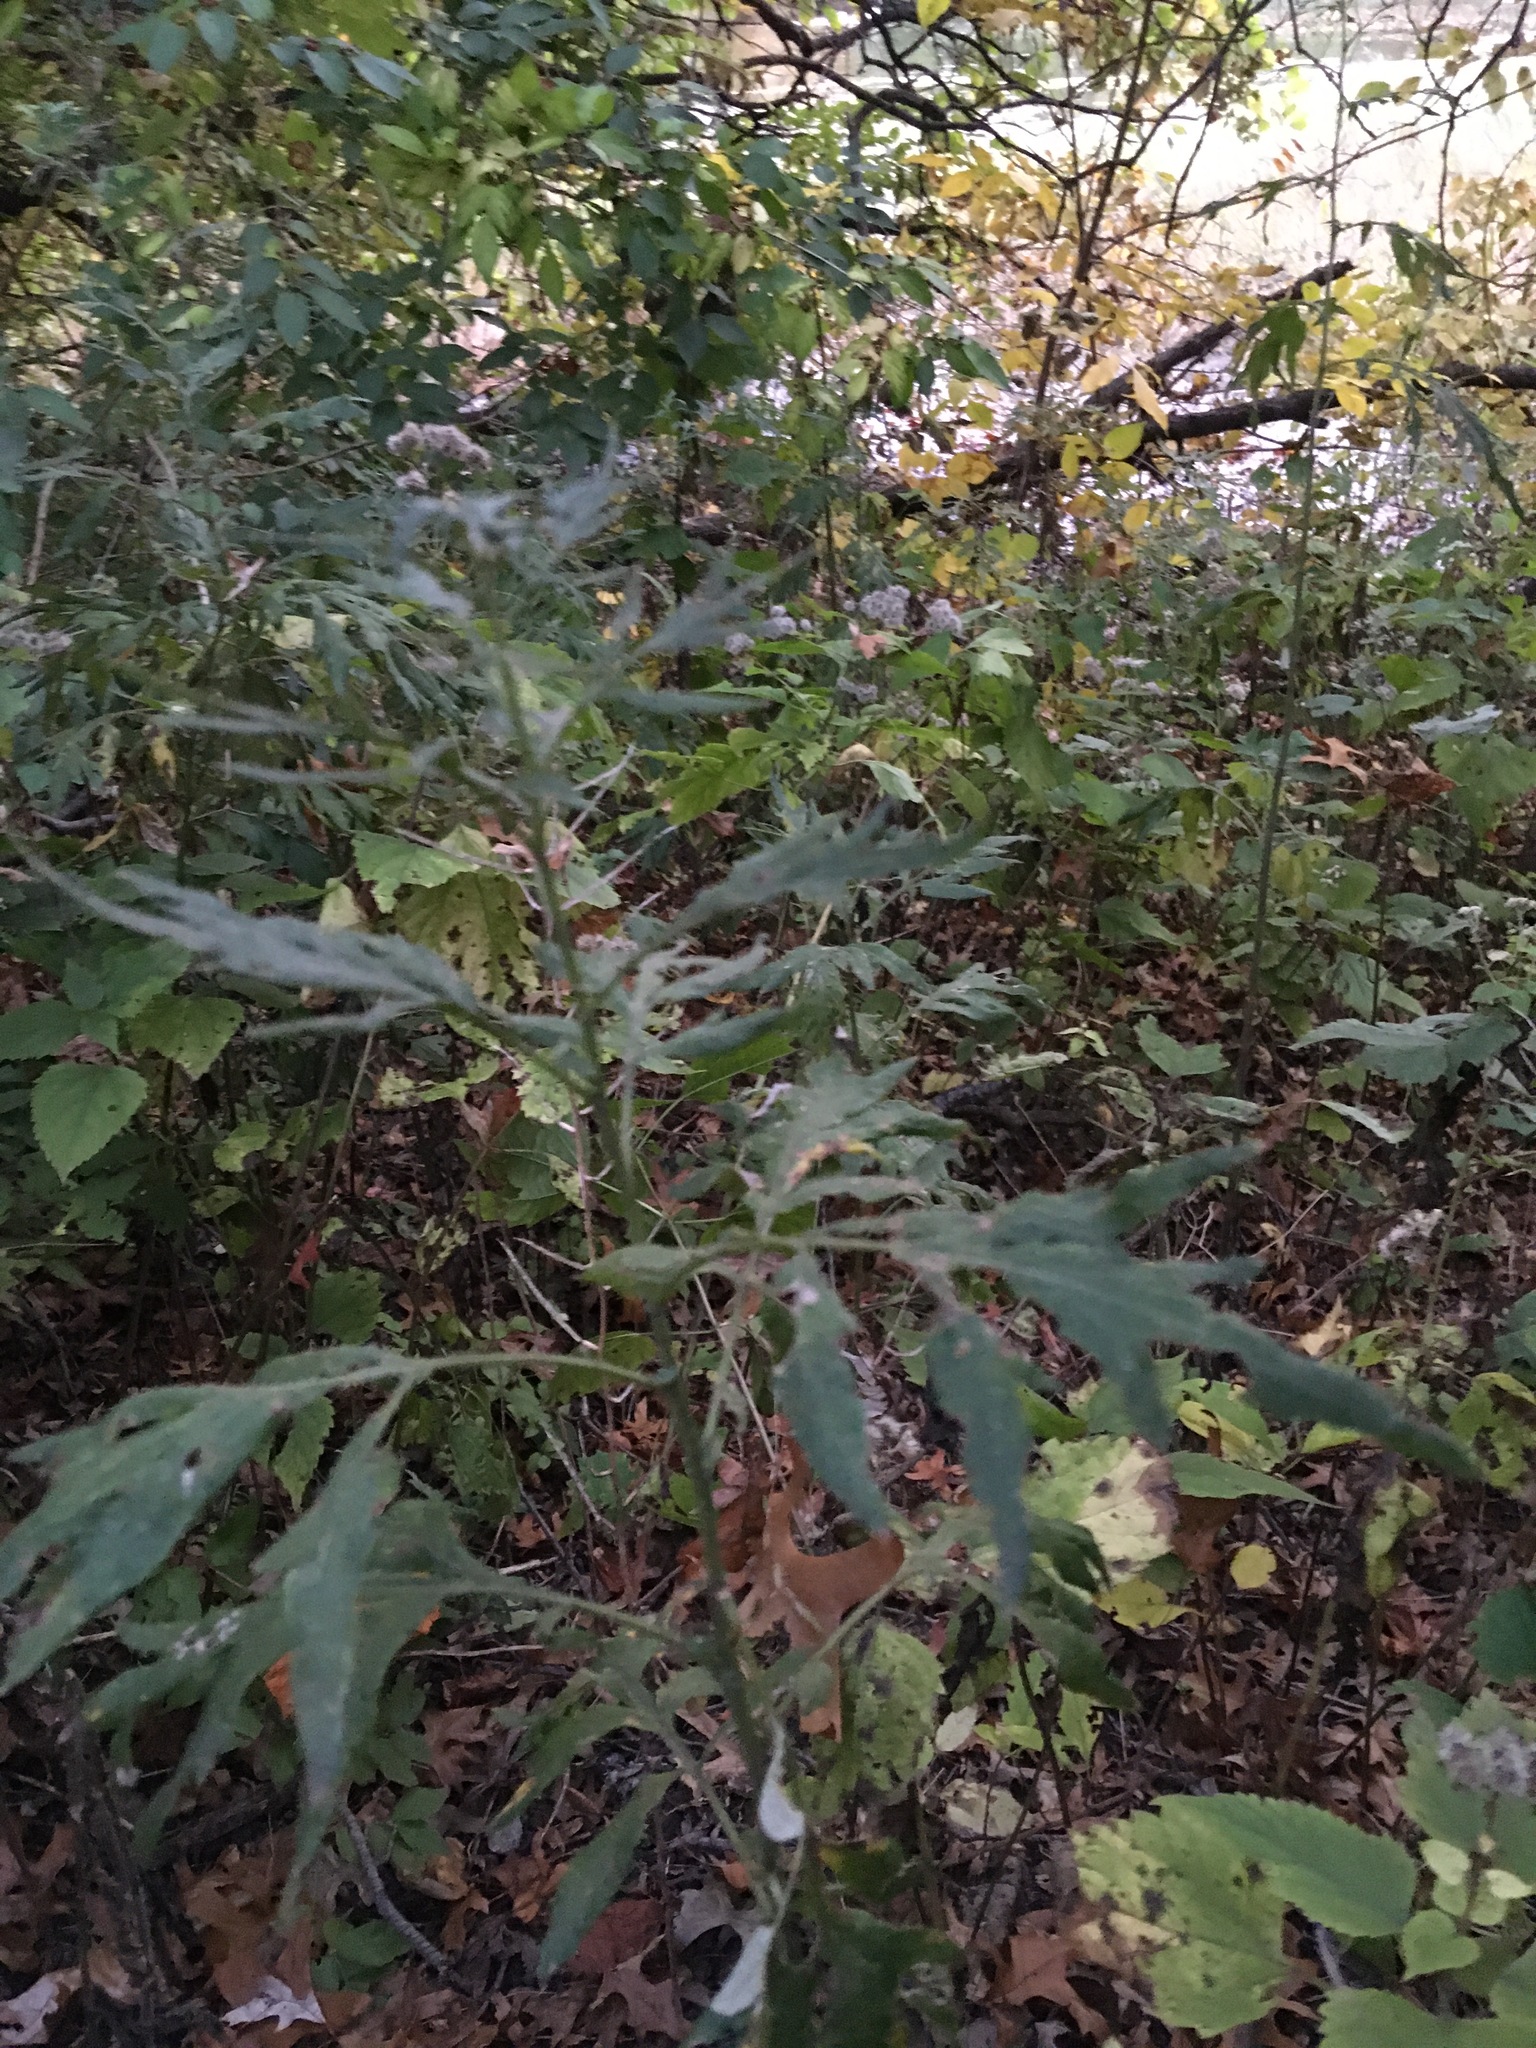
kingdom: Plantae
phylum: Tracheophyta
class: Magnoliopsida
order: Asterales
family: Asteraceae
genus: Artemisia
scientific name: Artemisia vulgaris
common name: Mugwort
